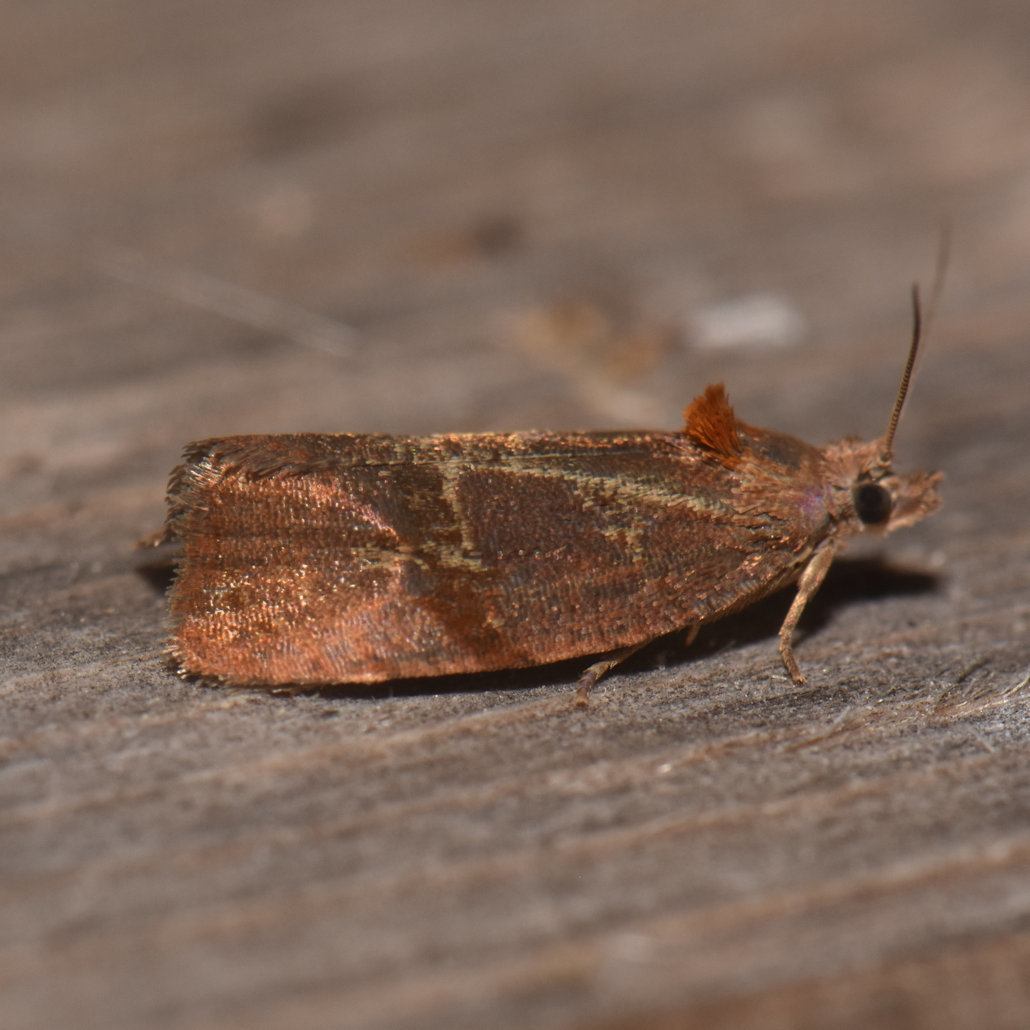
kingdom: Animalia
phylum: Arthropoda
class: Insecta
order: Lepidoptera
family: Tortricidae
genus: Evora
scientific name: Evora hemidesma
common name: Spirea leaftier moth
